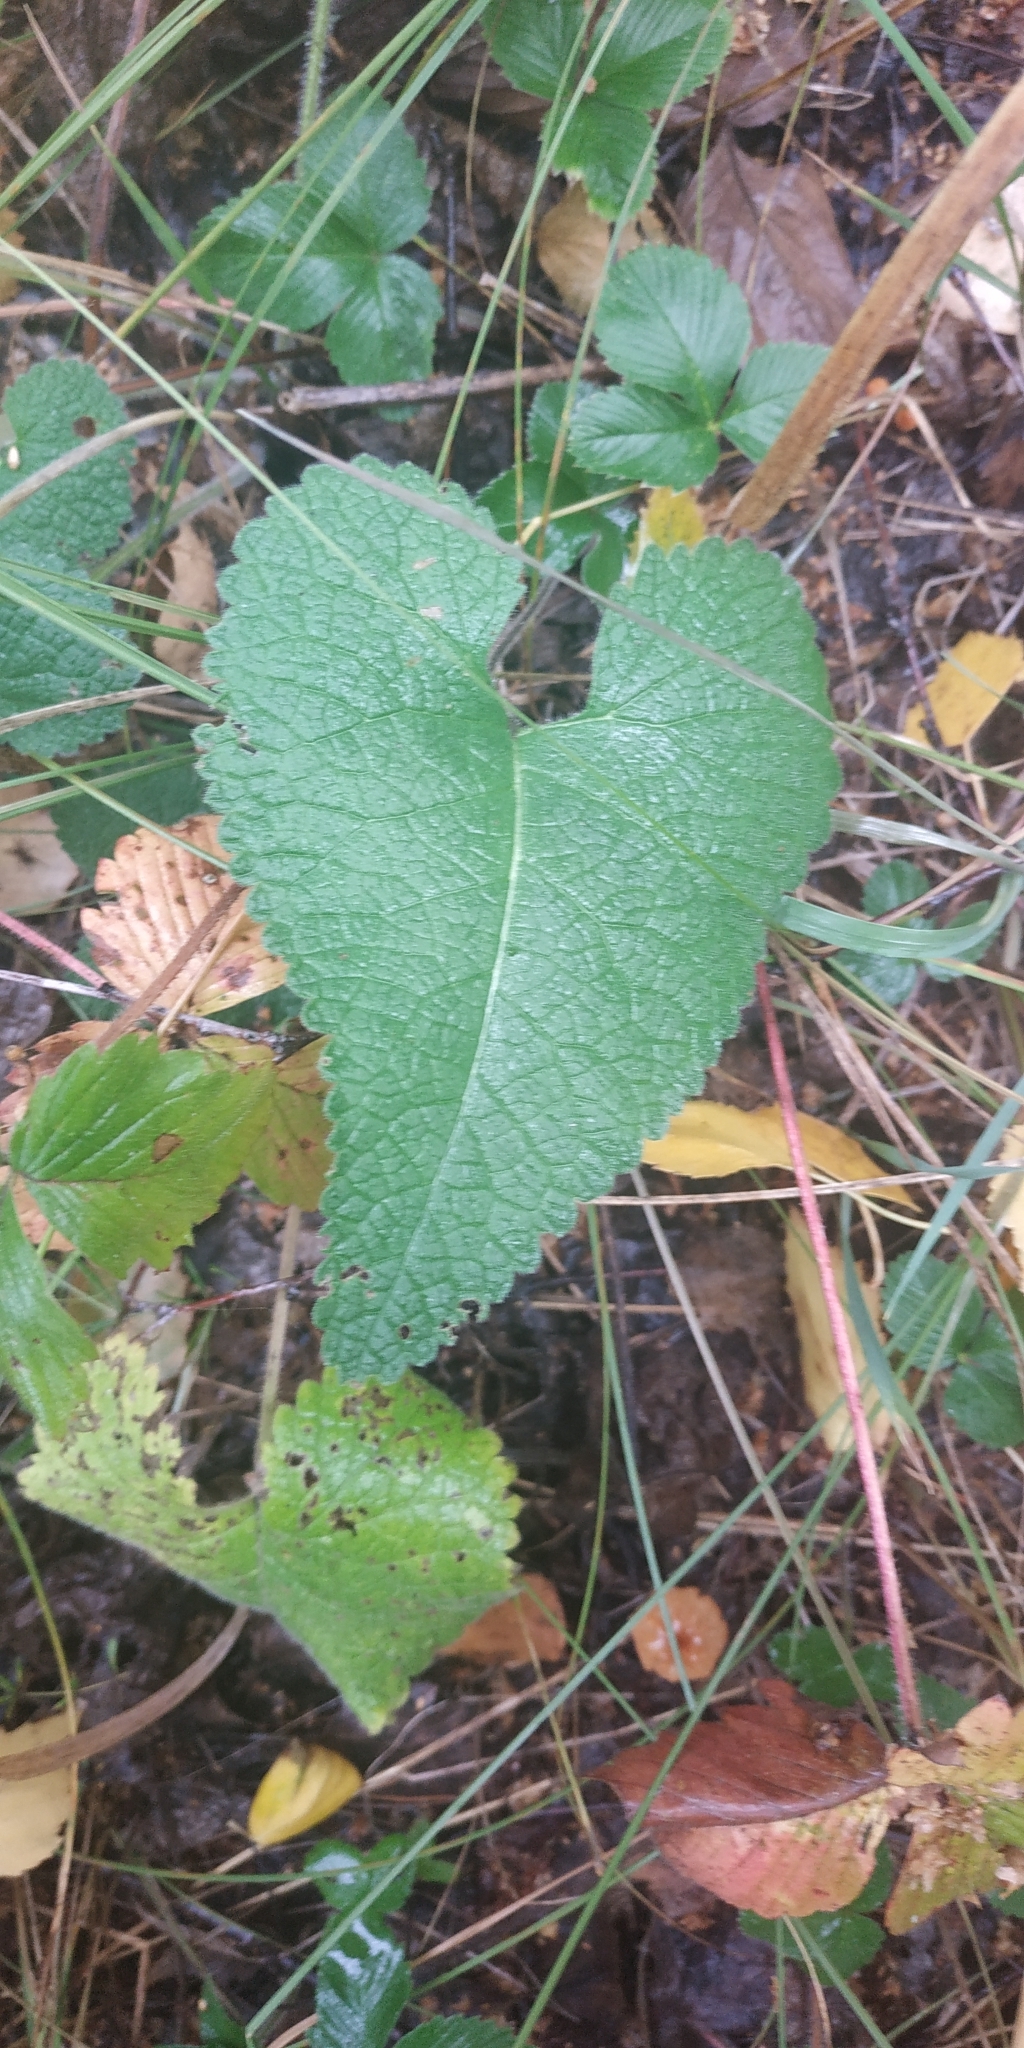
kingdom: Plantae
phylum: Tracheophyta
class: Magnoliopsida
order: Lamiales
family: Lamiaceae
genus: Phlomoides
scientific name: Phlomoides tuberosa
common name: Tuberous jerusalem sage
